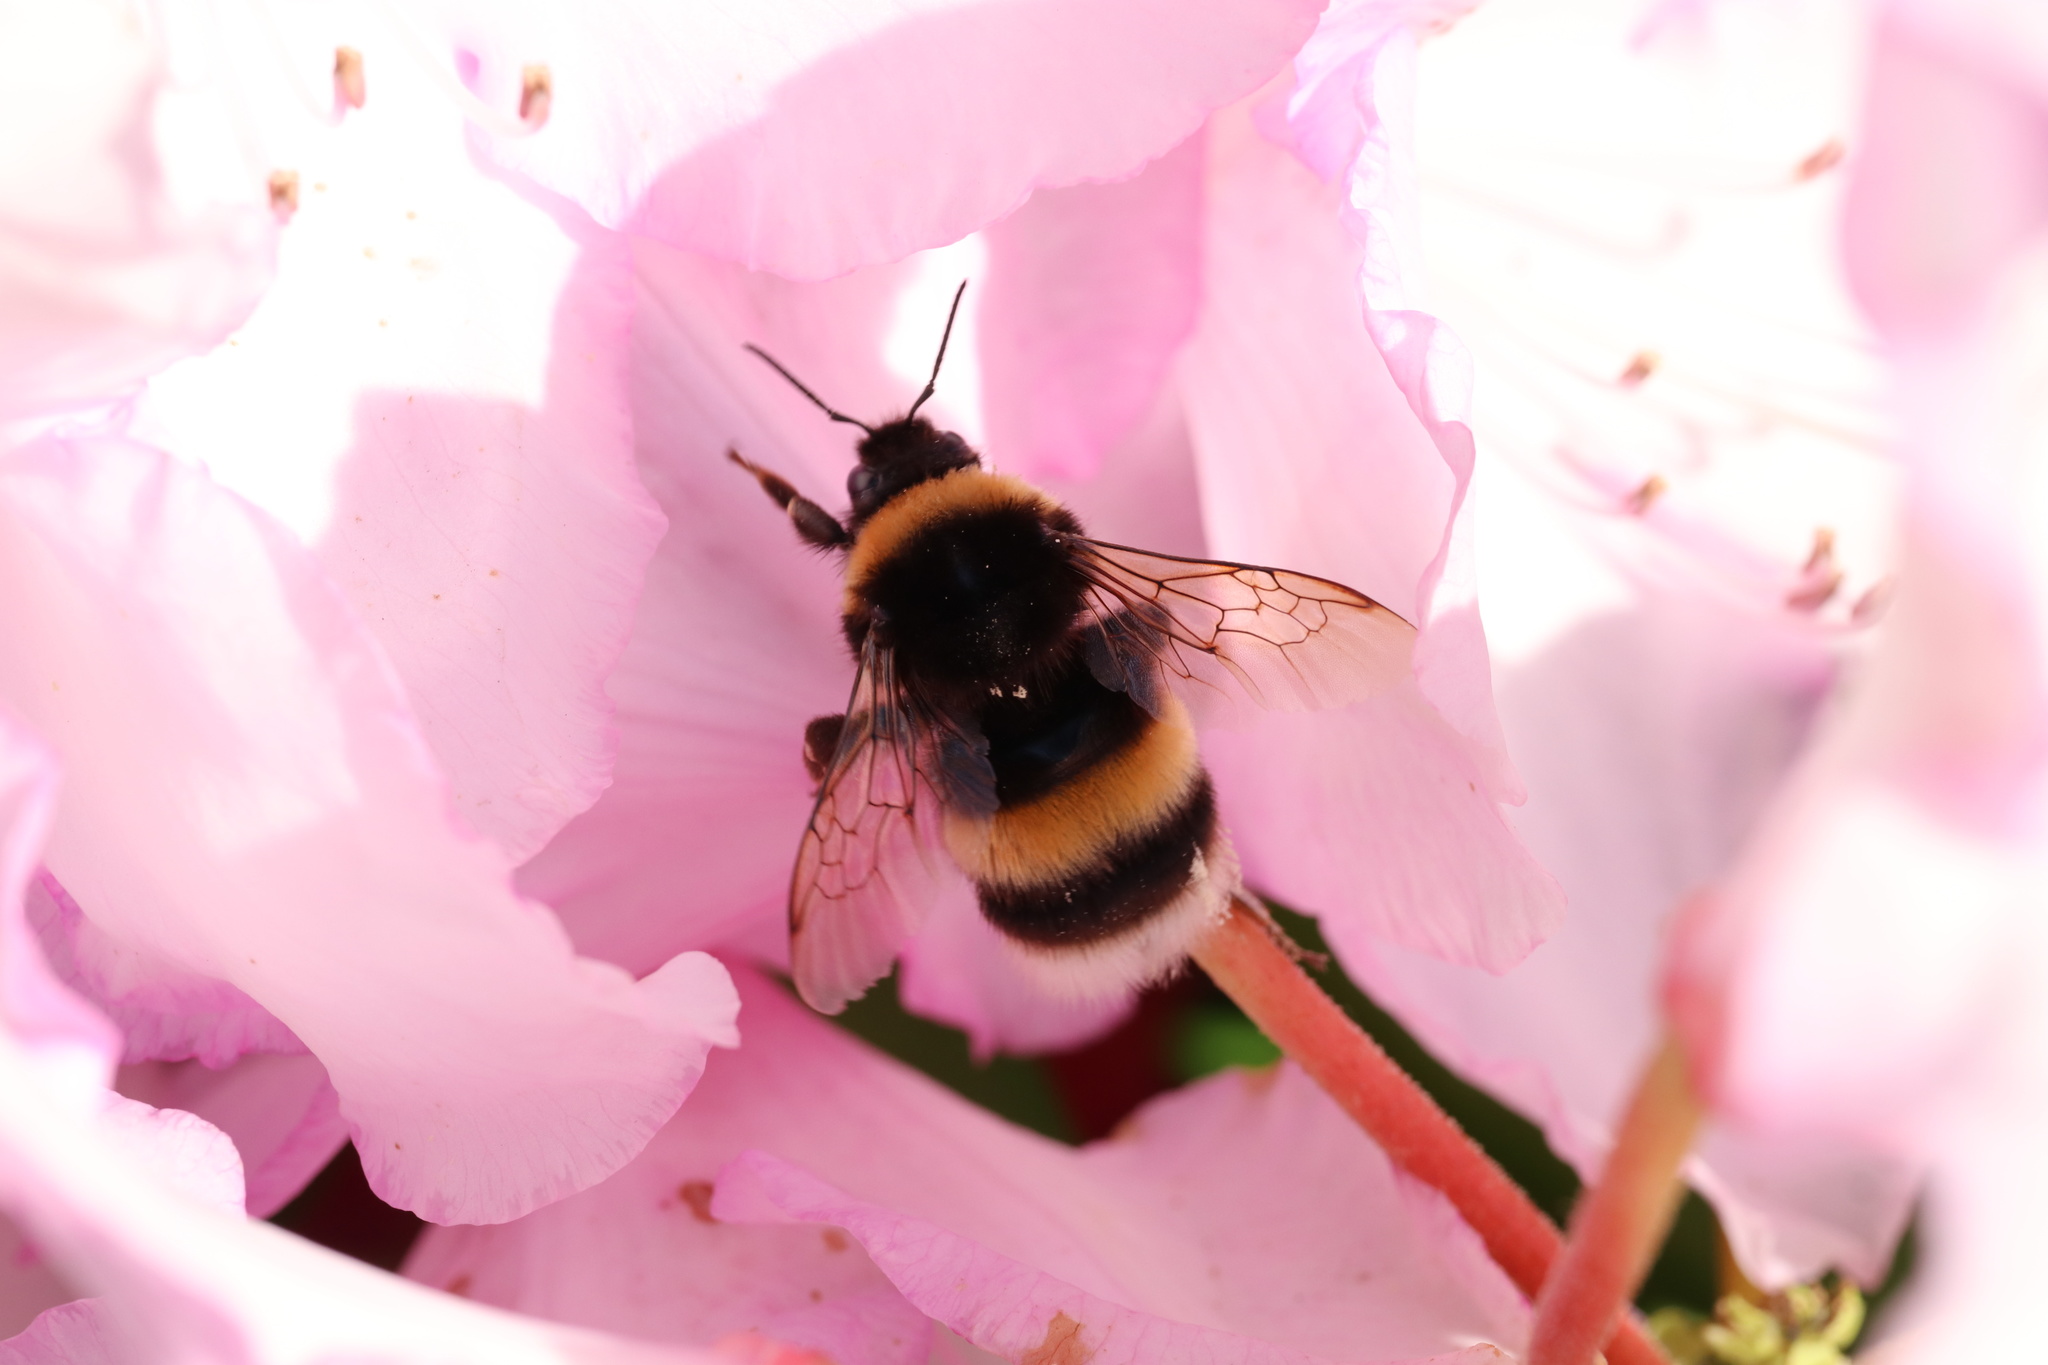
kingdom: Animalia
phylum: Arthropoda
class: Insecta
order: Hymenoptera
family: Apidae
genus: Bombus
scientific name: Bombus terrestris
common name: Buff-tailed bumblebee
